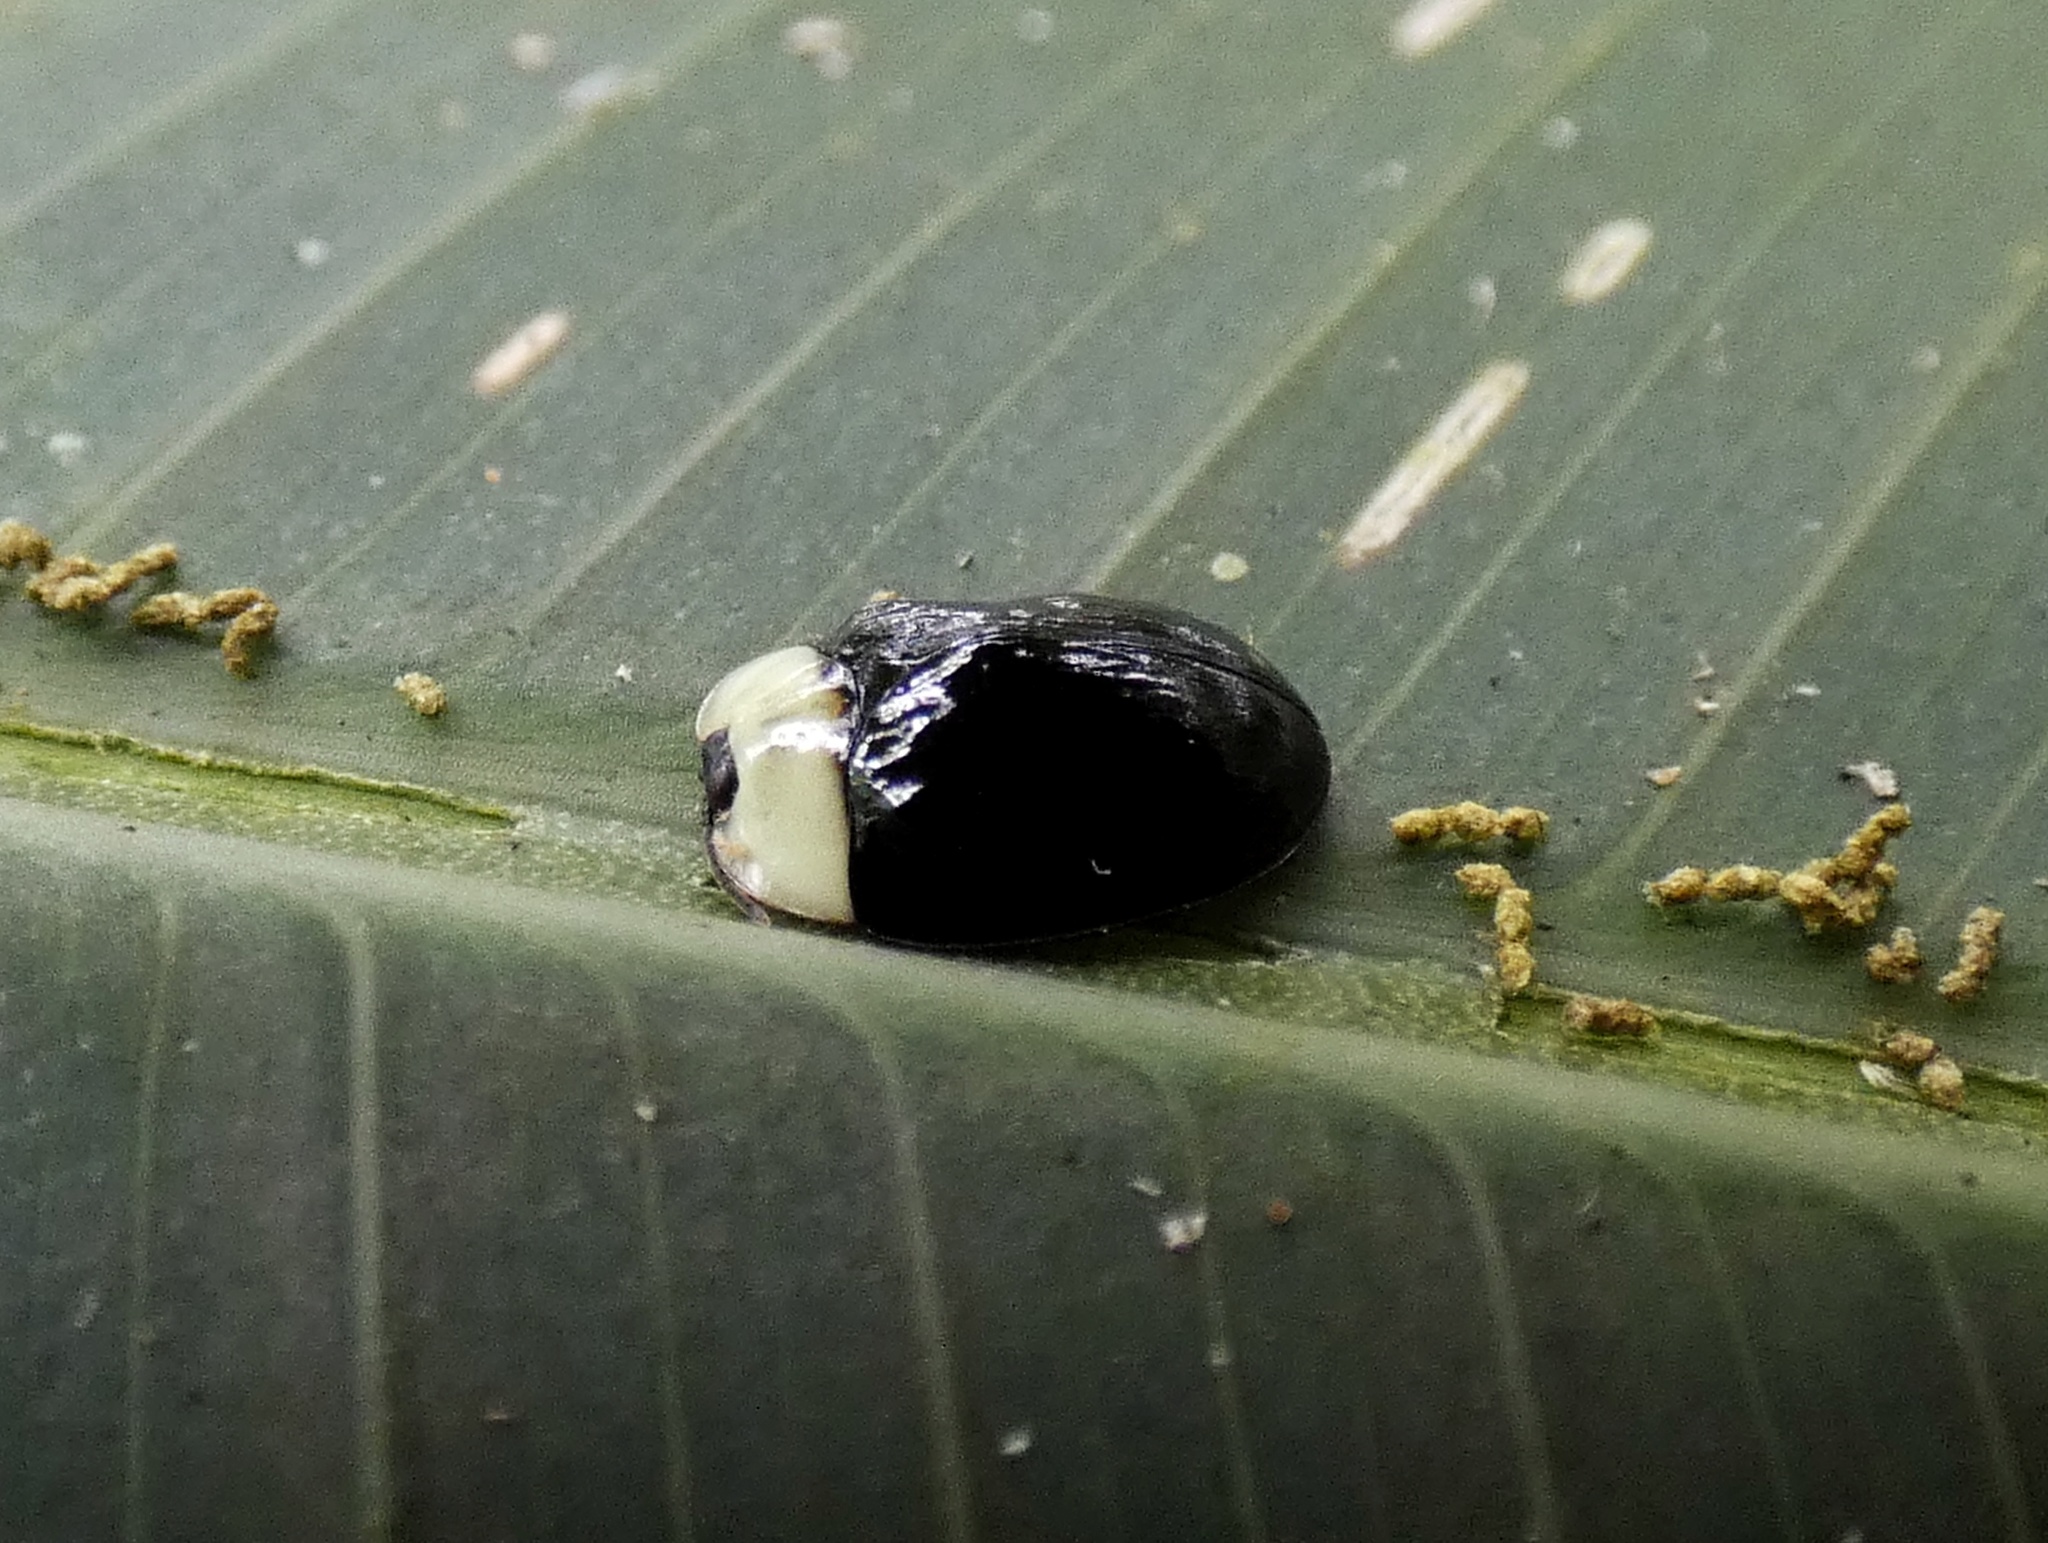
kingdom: Animalia
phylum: Arthropoda
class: Insecta
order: Coleoptera
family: Chrysomelidae
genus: Imatidium
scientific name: Imatidium thoracicum
